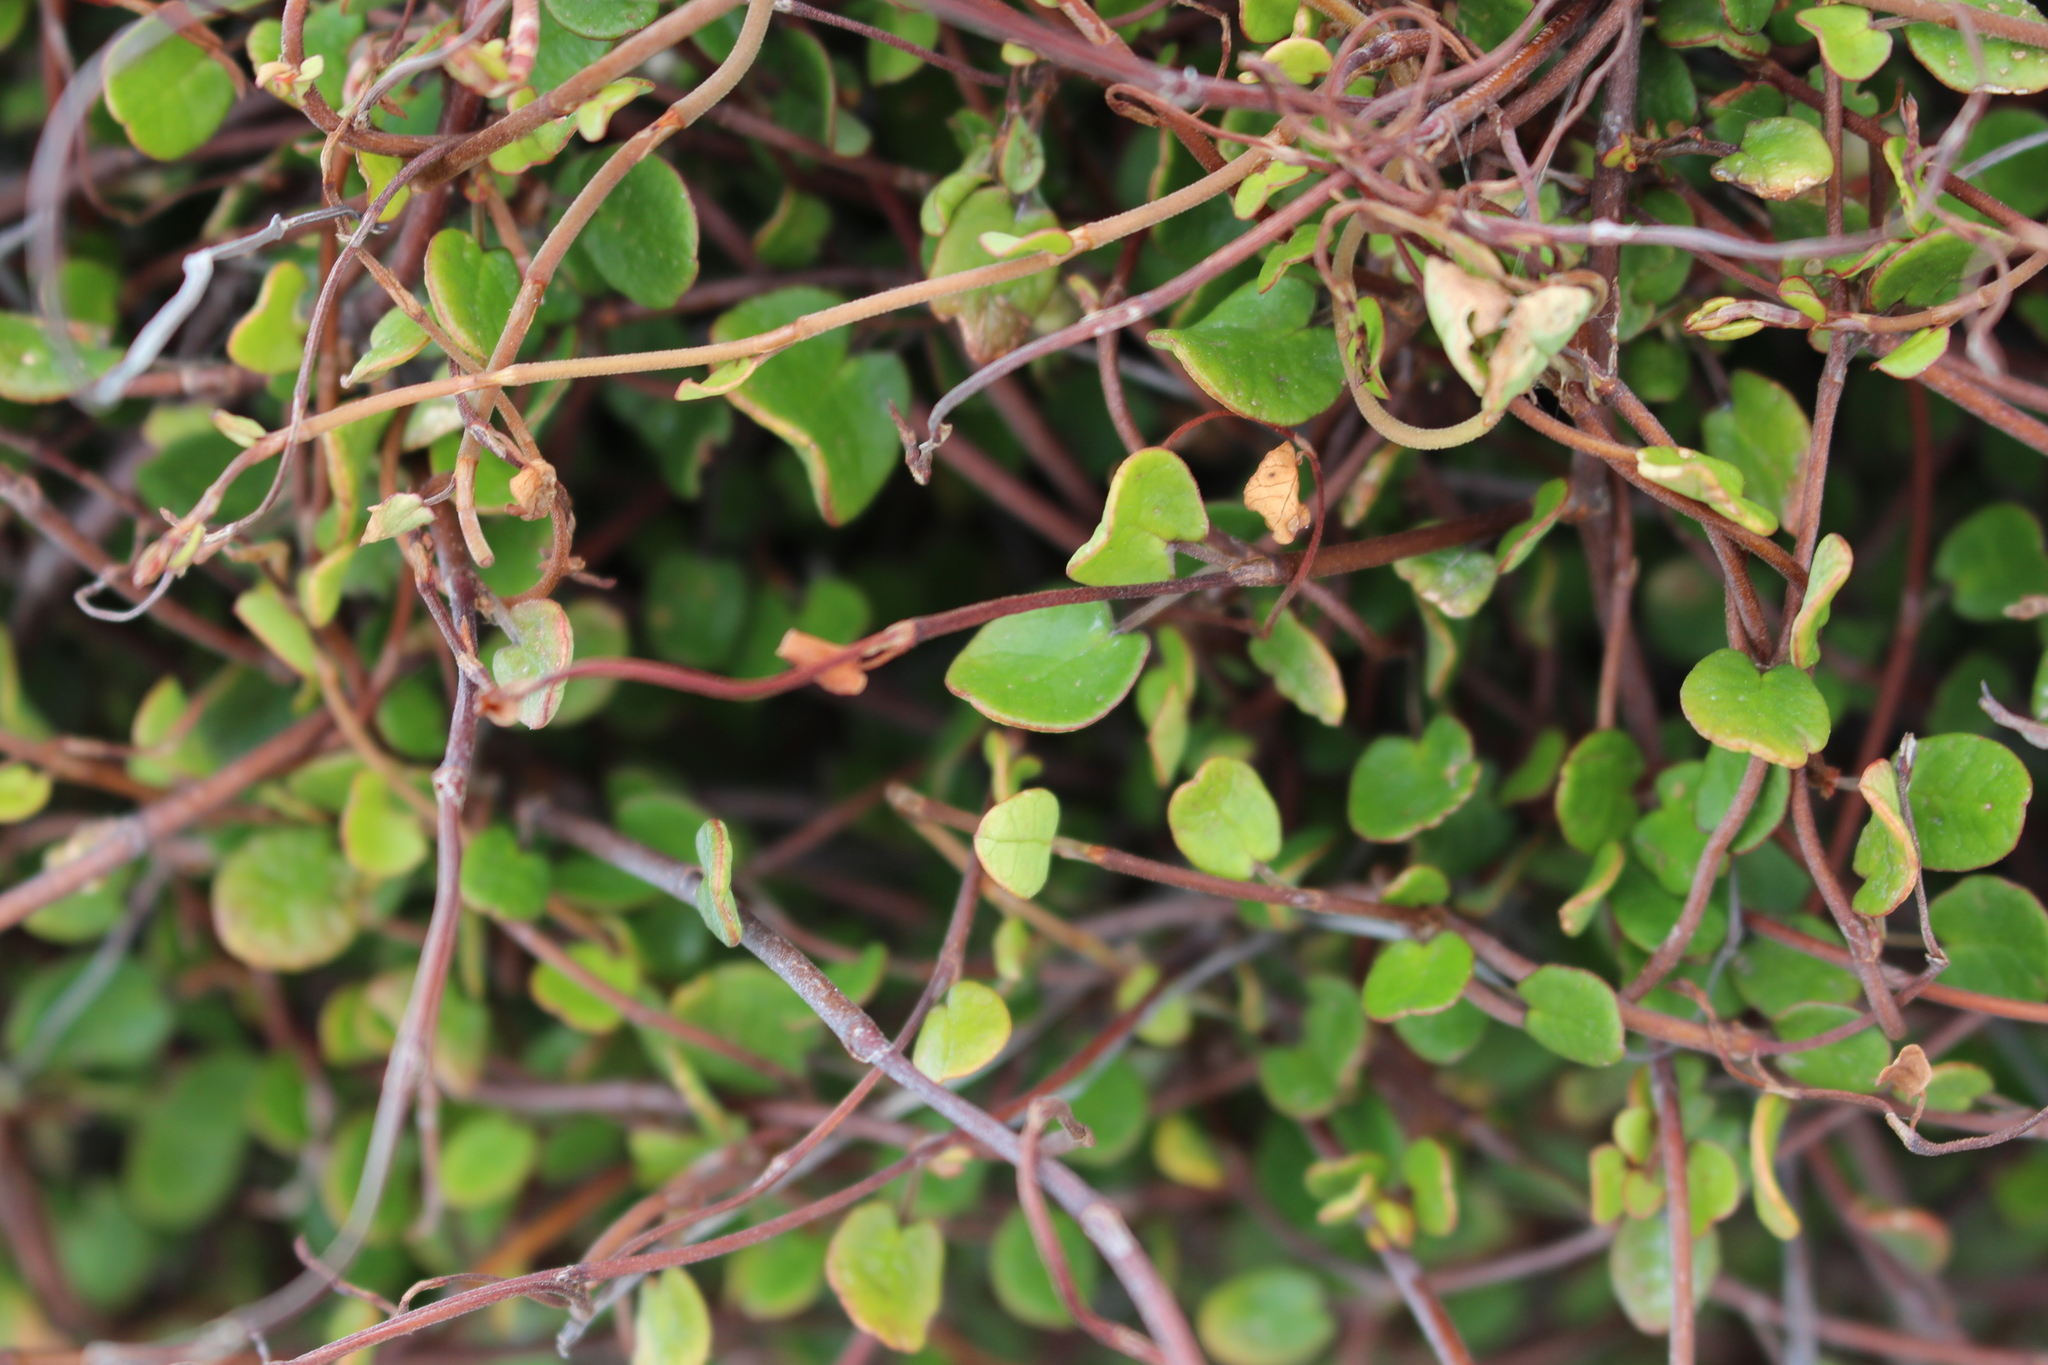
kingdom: Plantae
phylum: Tracheophyta
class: Magnoliopsida
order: Caryophyllales
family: Polygonaceae
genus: Muehlenbeckia
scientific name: Muehlenbeckia complexa
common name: Wireplant
